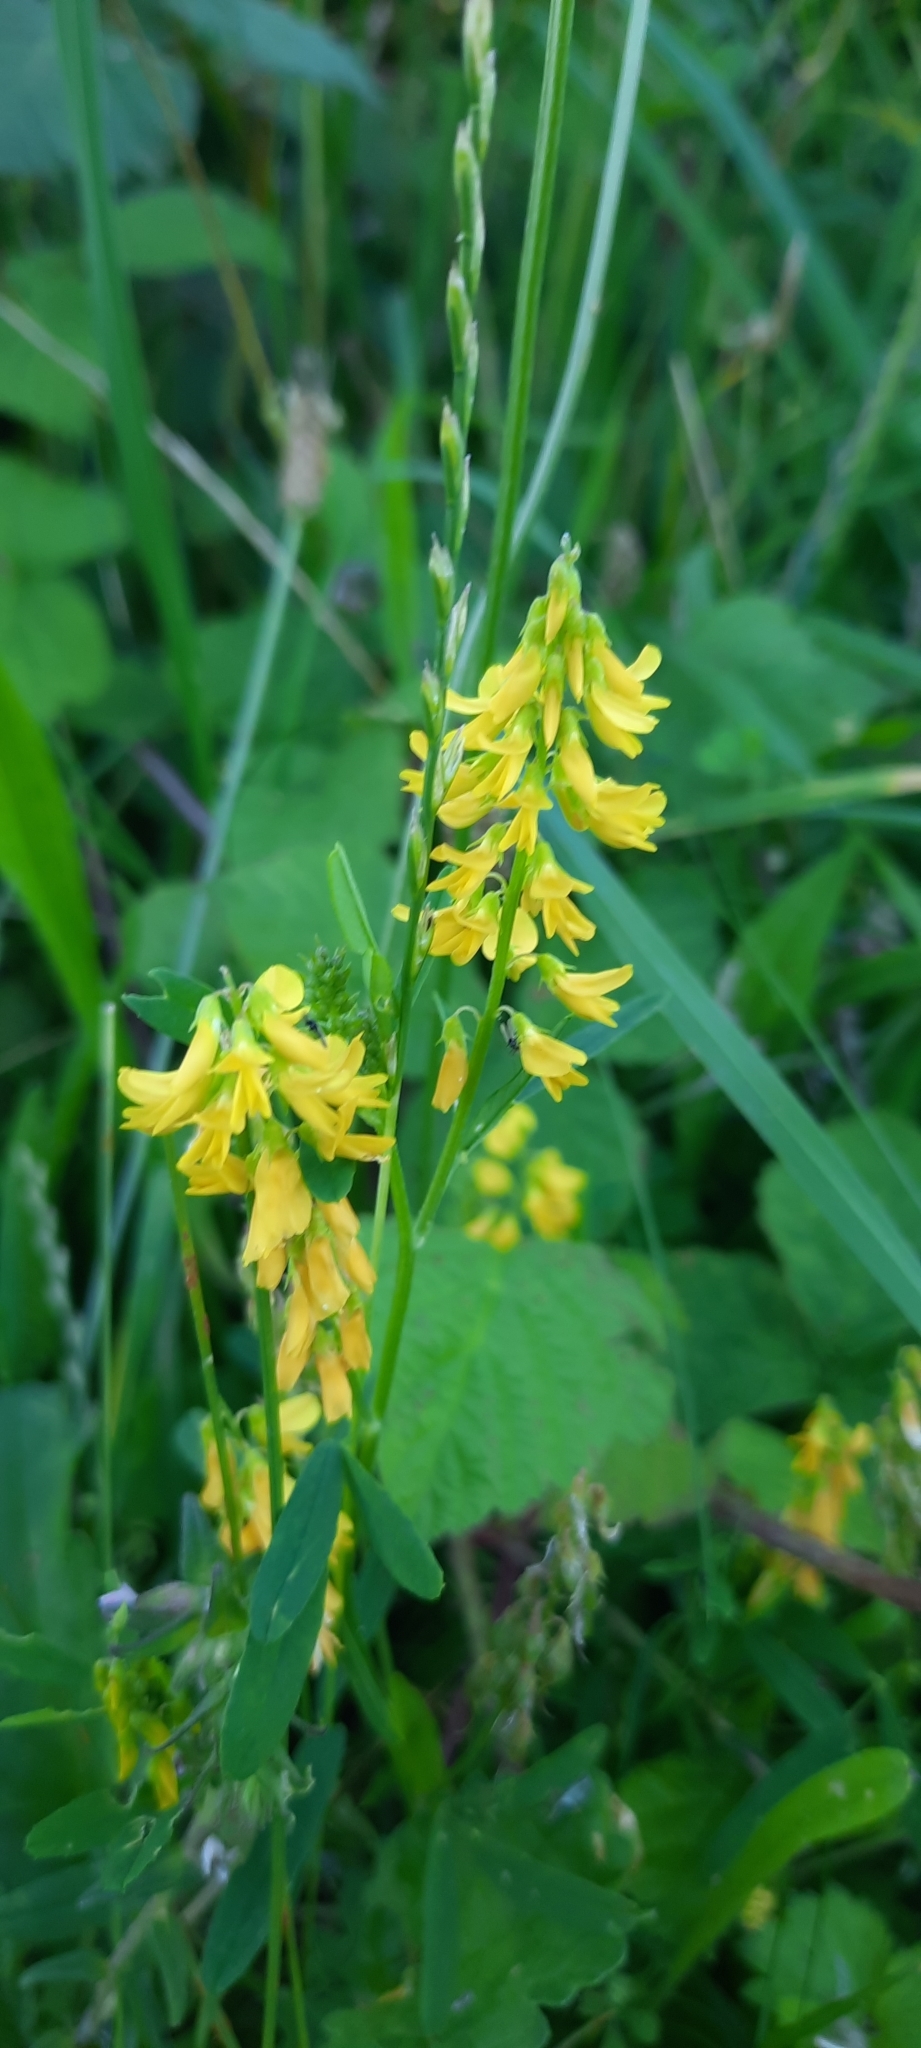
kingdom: Plantae
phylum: Tracheophyta
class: Magnoliopsida
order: Fabales
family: Fabaceae
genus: Melilotus
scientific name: Melilotus officinalis
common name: Sweetclover
